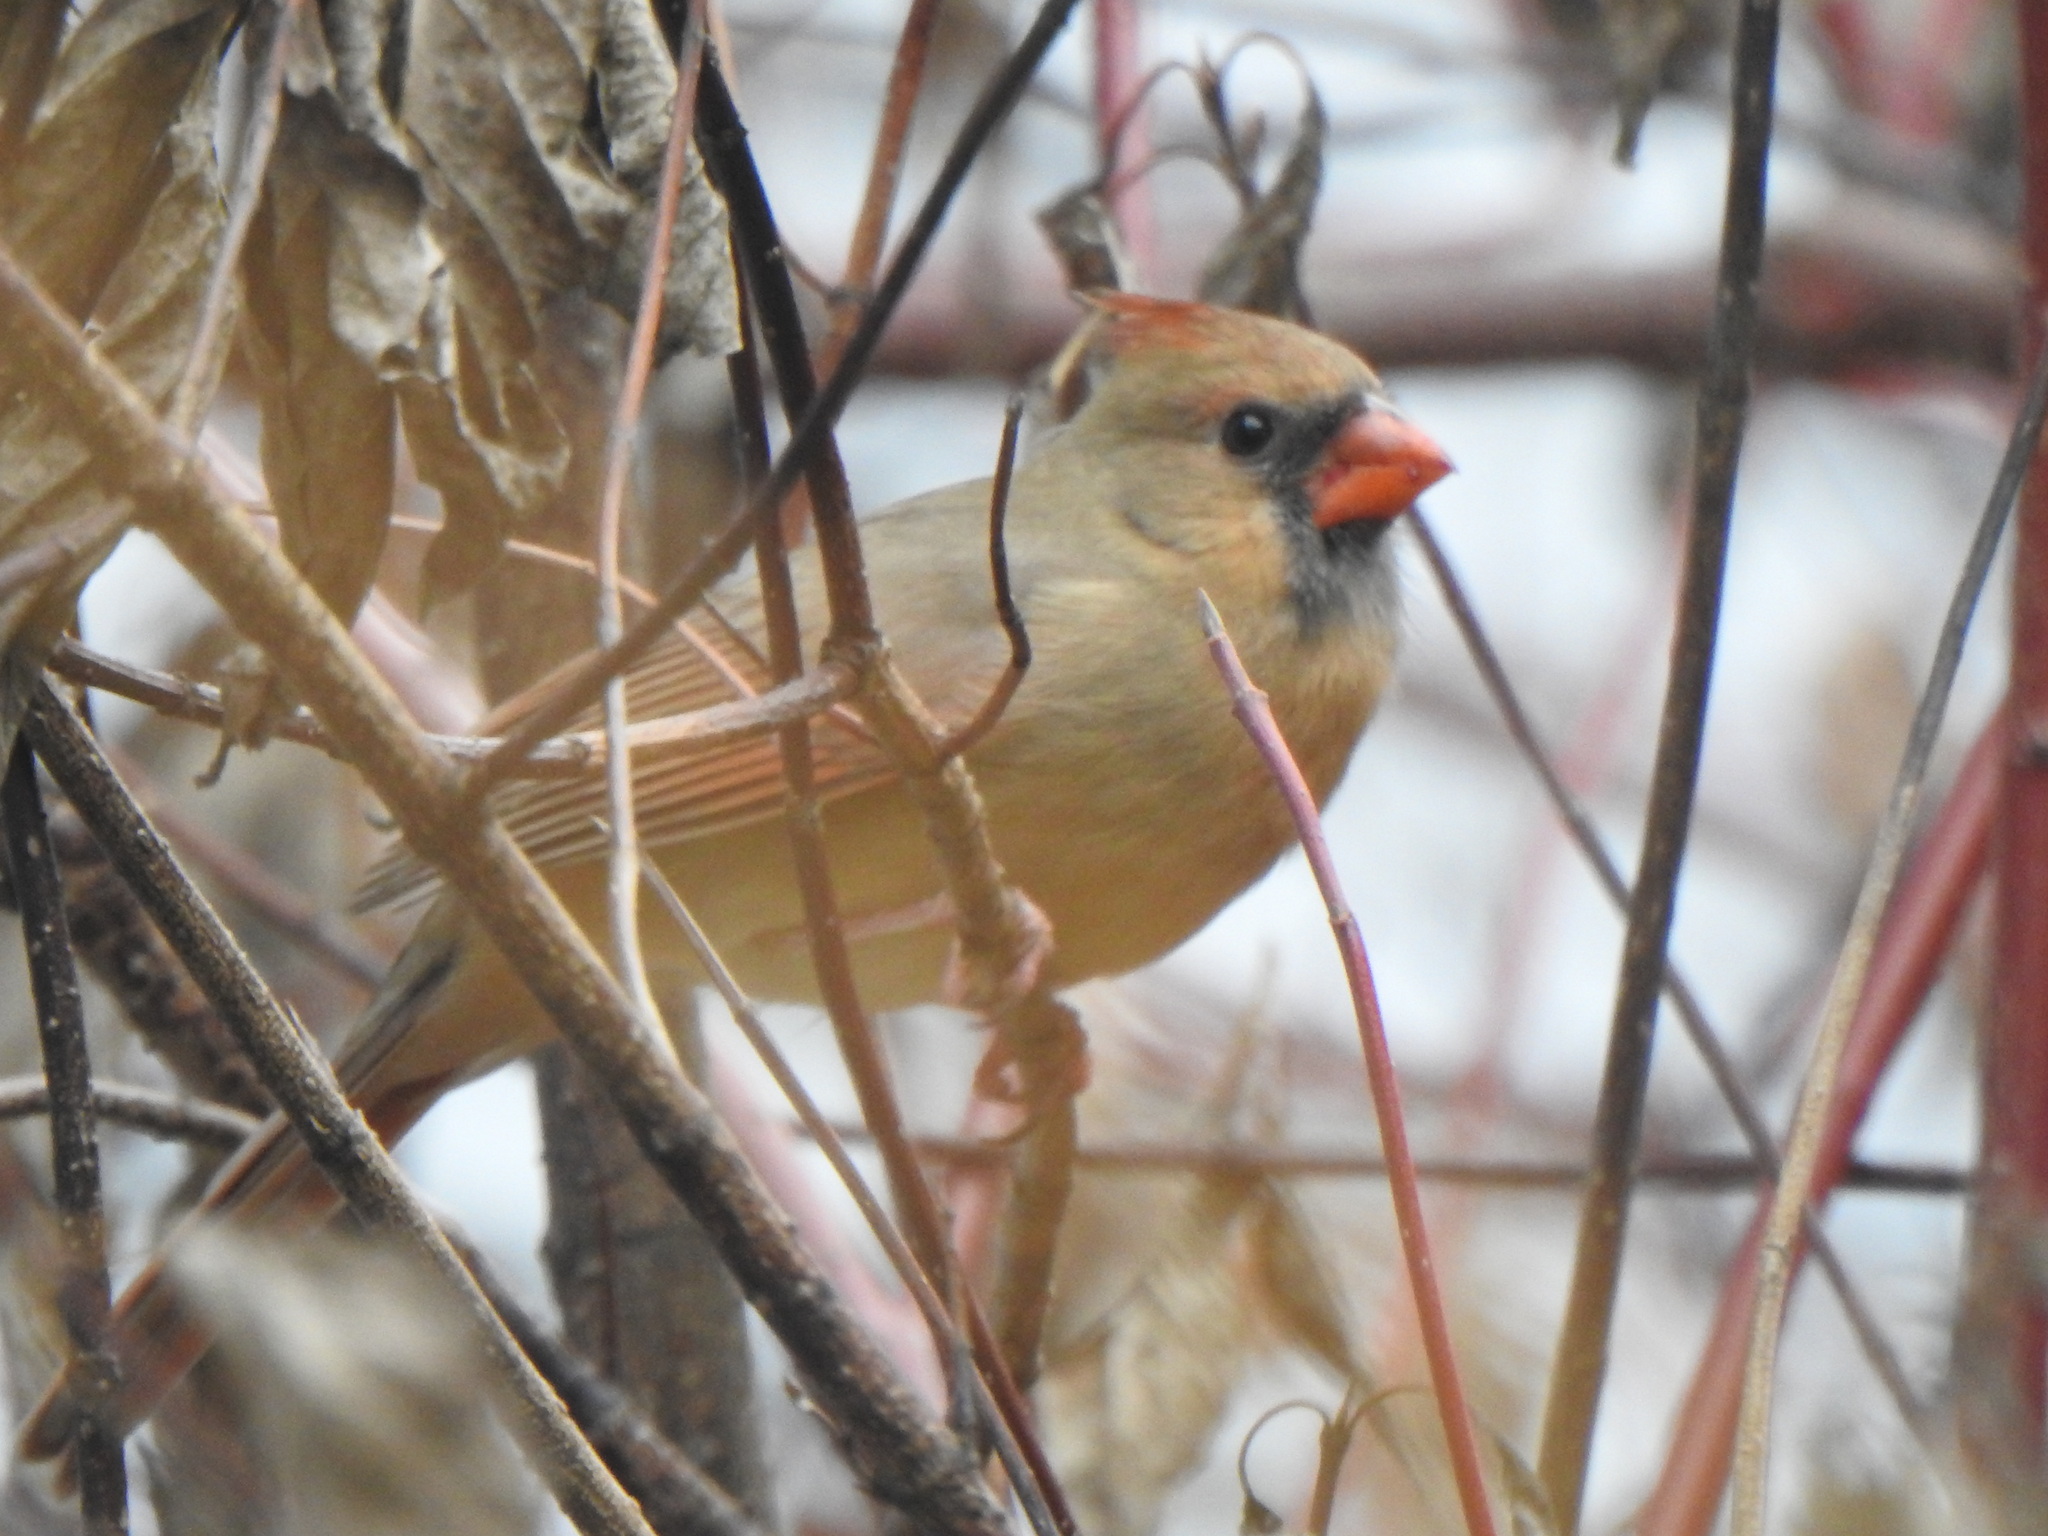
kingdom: Animalia
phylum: Chordata
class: Aves
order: Passeriformes
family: Cardinalidae
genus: Cardinalis
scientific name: Cardinalis cardinalis
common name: Northern cardinal
